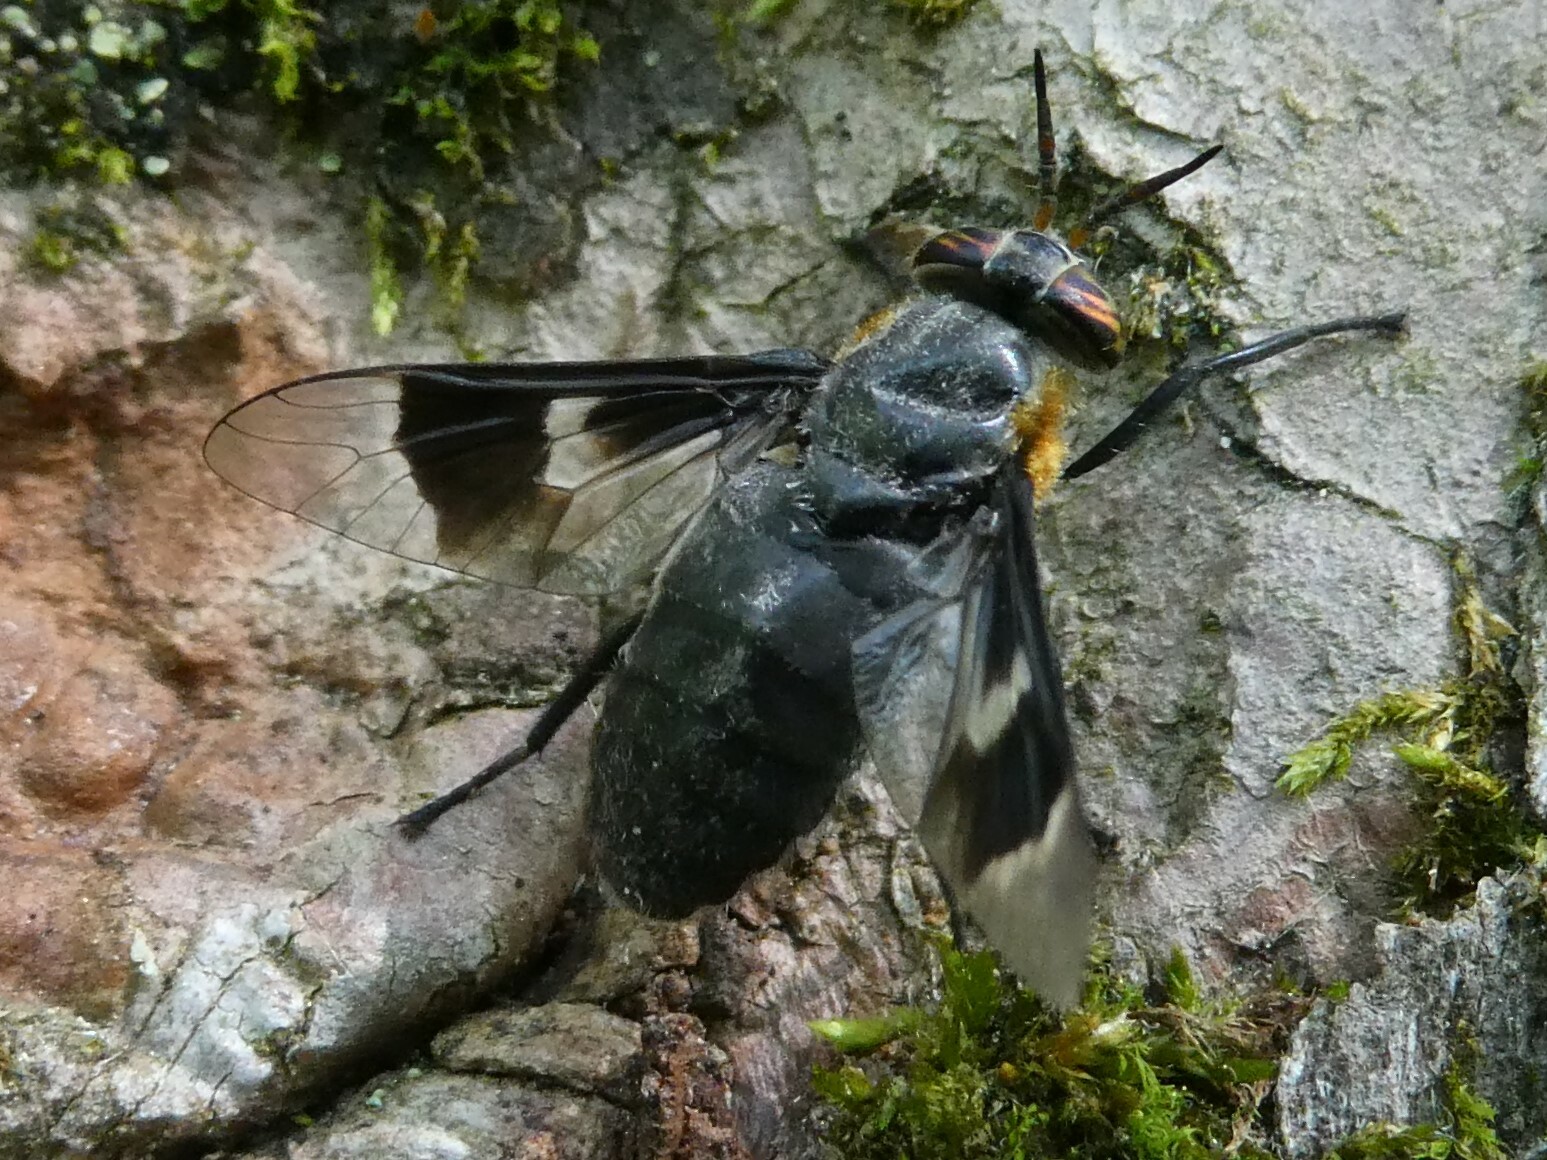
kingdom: Animalia
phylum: Arthropoda
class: Insecta
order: Diptera
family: Tabanidae
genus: Chrysops
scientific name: Chrysops cincticornis
